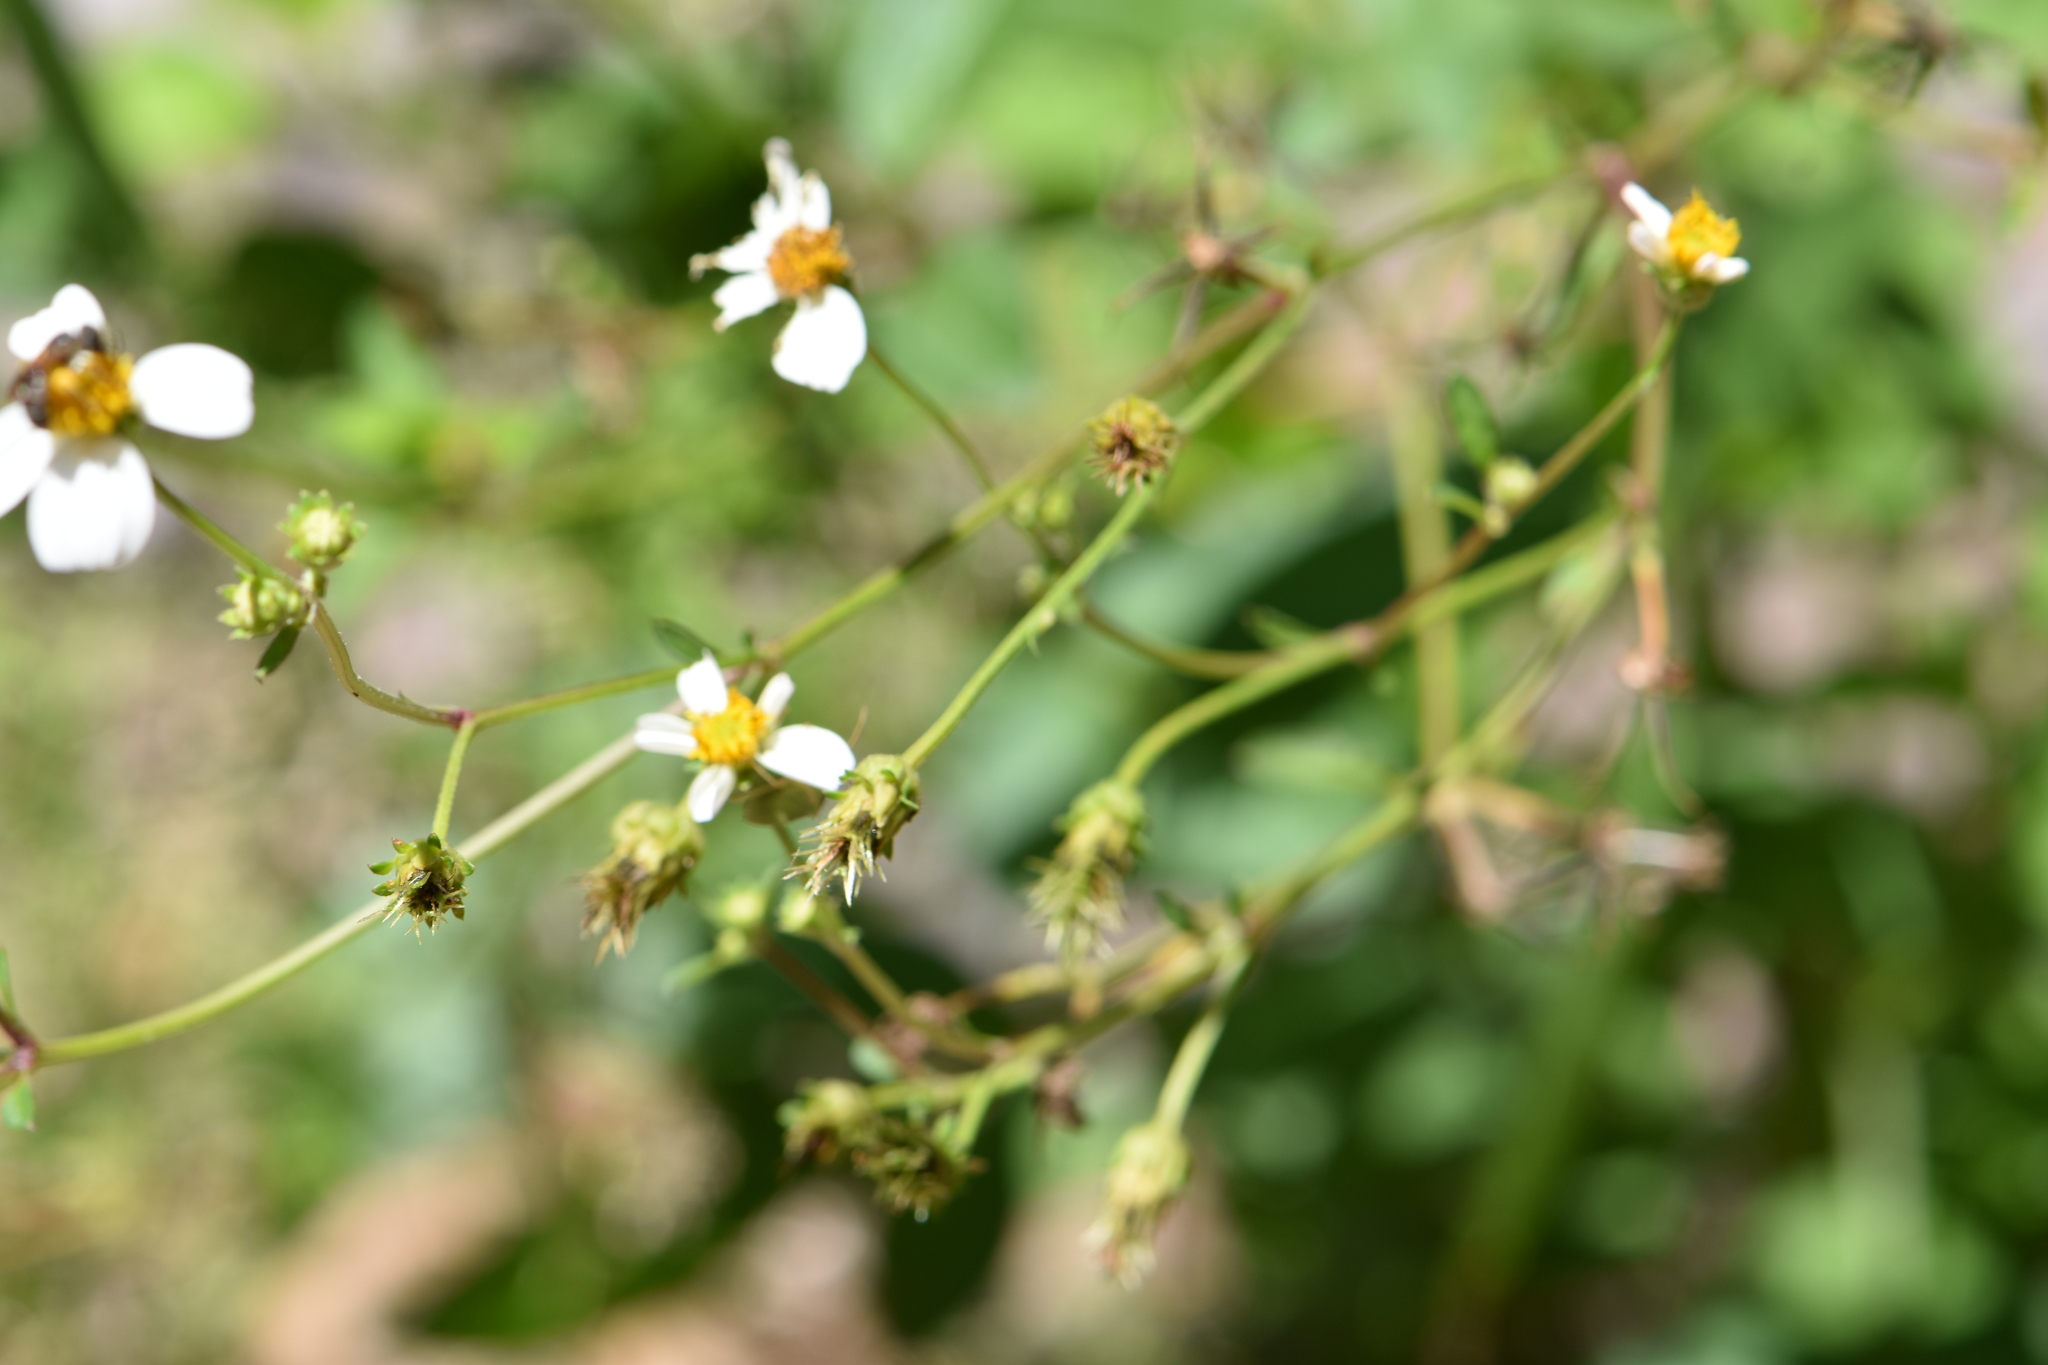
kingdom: Plantae
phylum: Tracheophyta
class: Magnoliopsida
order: Asterales
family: Asteraceae
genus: Bidens
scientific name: Bidens alba
